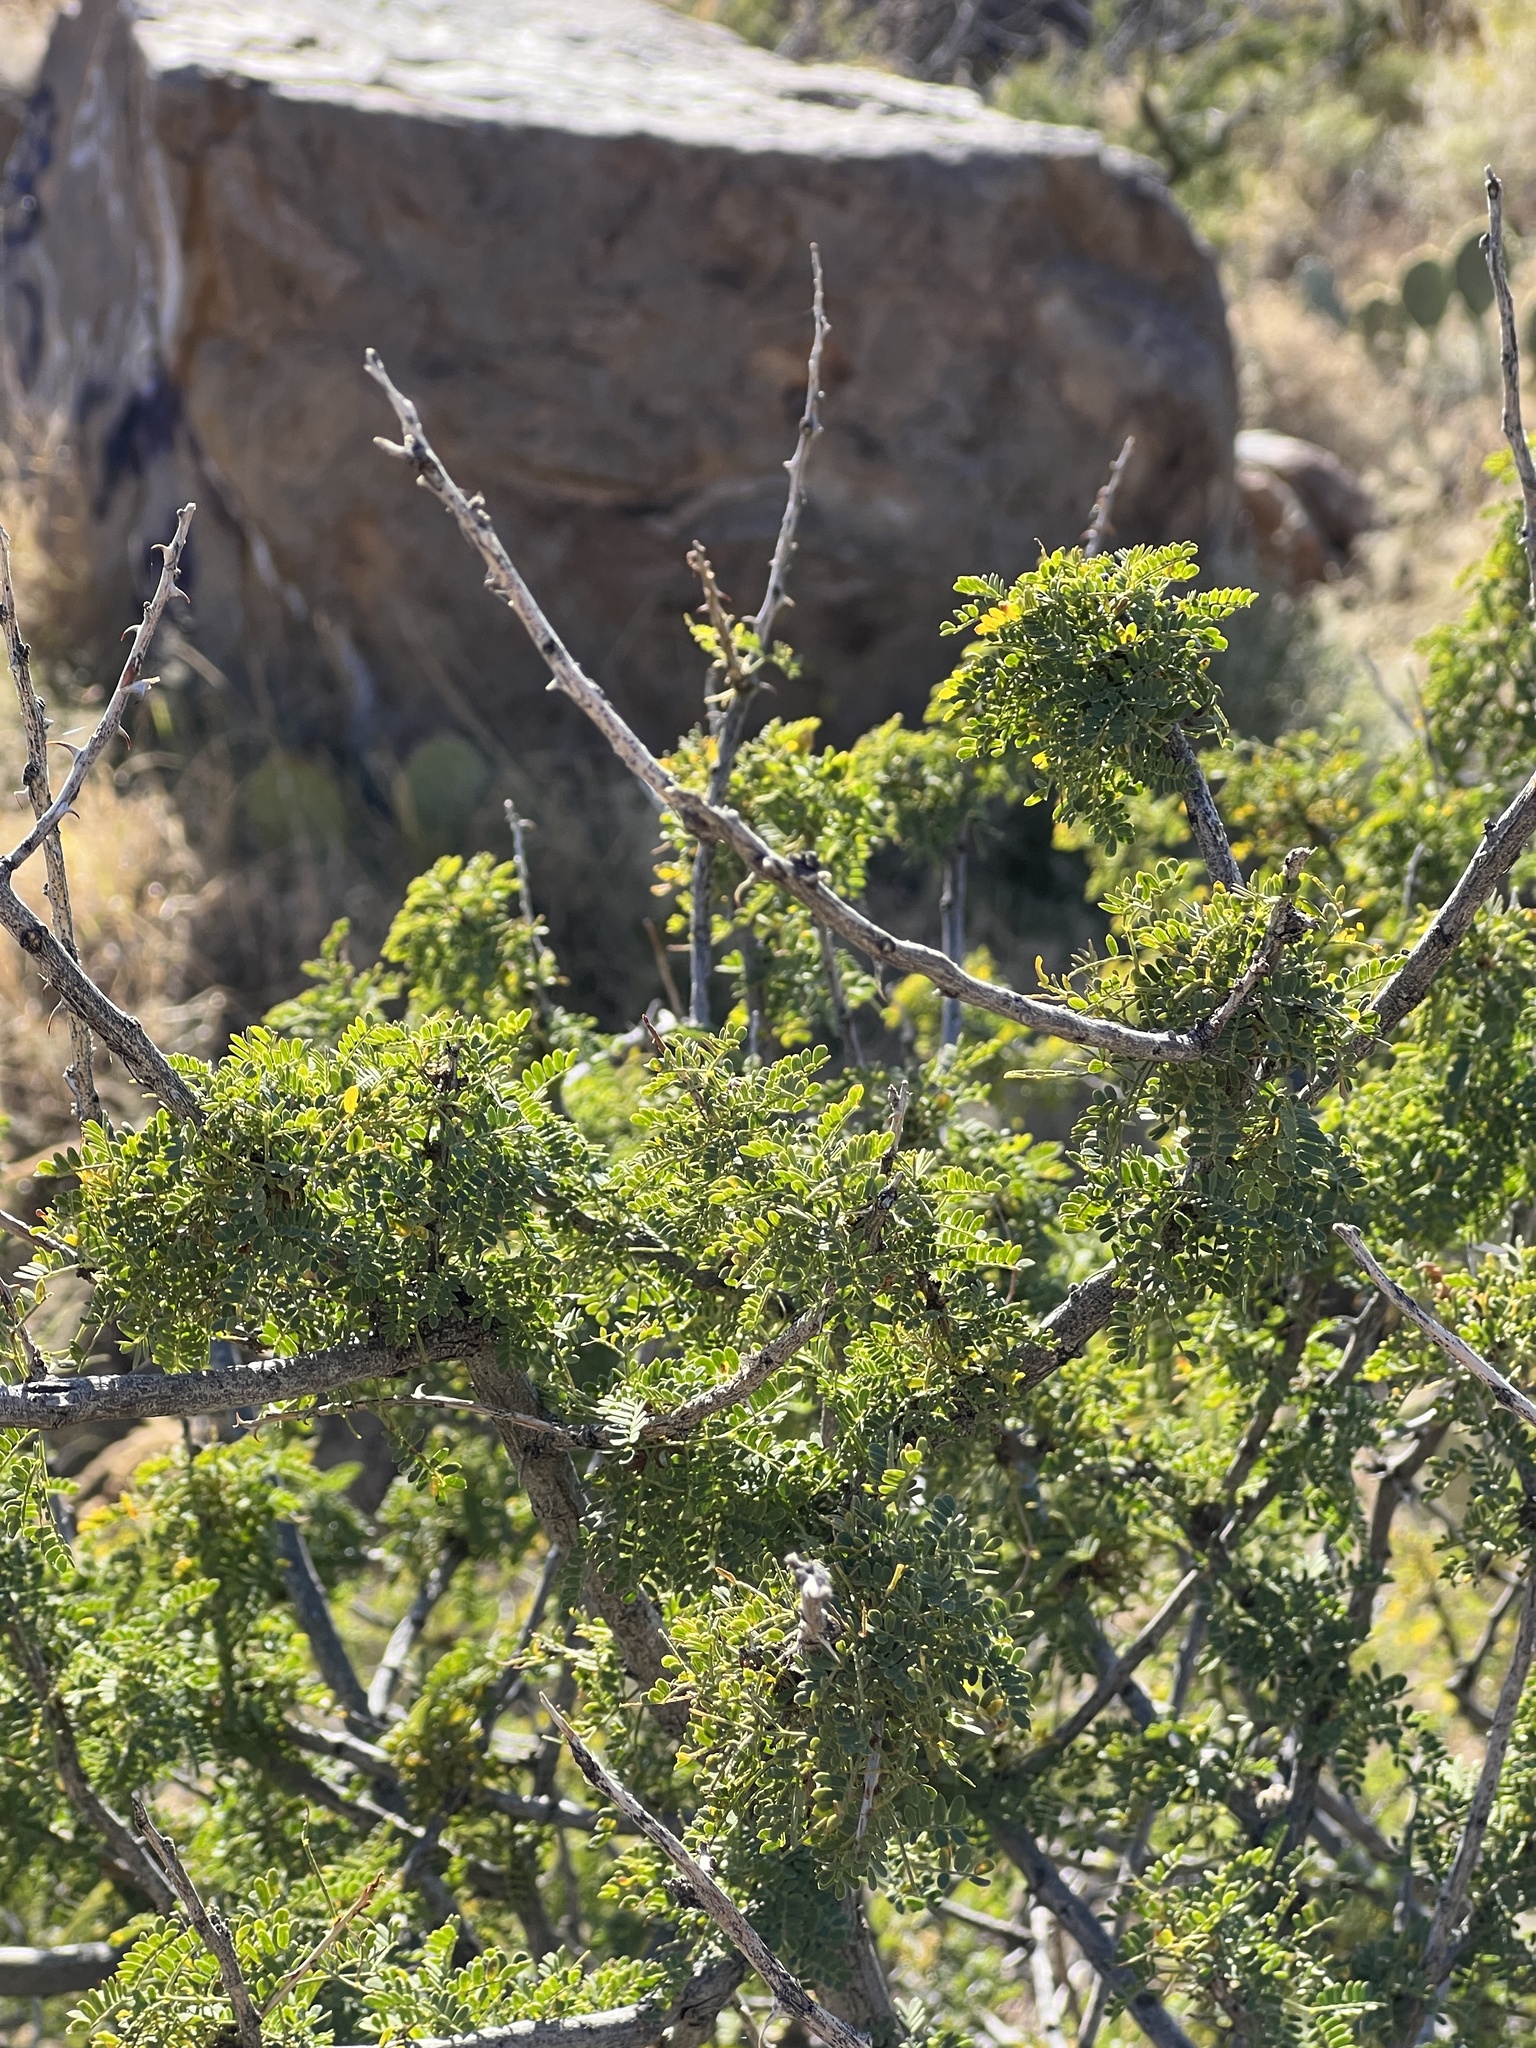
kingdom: Plantae
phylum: Tracheophyta
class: Magnoliopsida
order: Fabales
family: Fabaceae
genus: Senegalia
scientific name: Senegalia greggii
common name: Texas-mimosa
